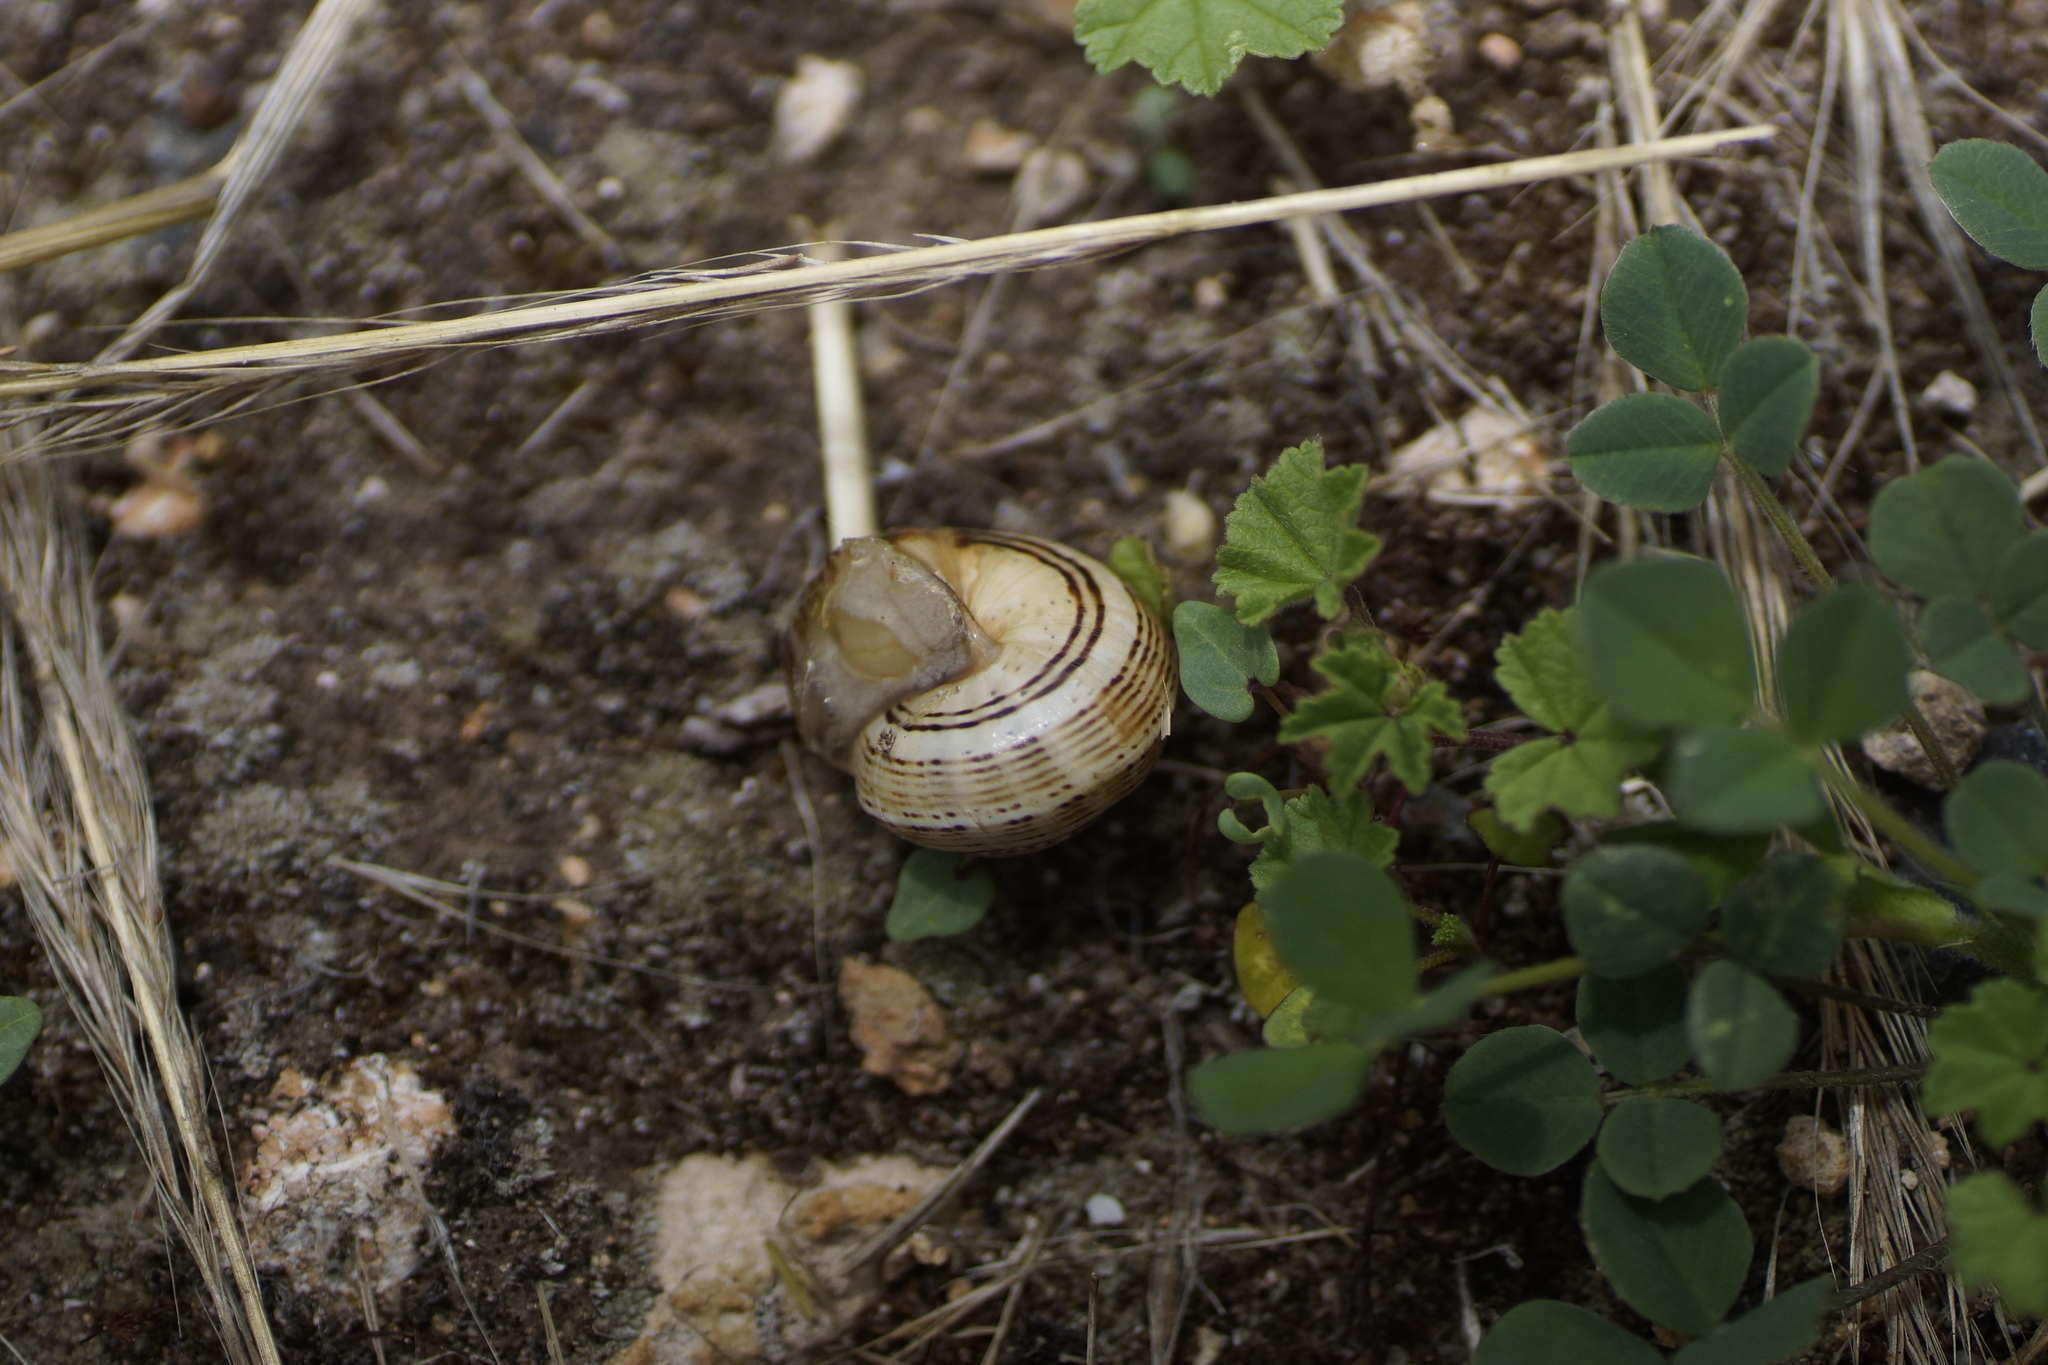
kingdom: Animalia
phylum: Mollusca
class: Gastropoda
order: Stylommatophora
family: Helicidae
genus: Theba
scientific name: Theba pisana
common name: White snail
